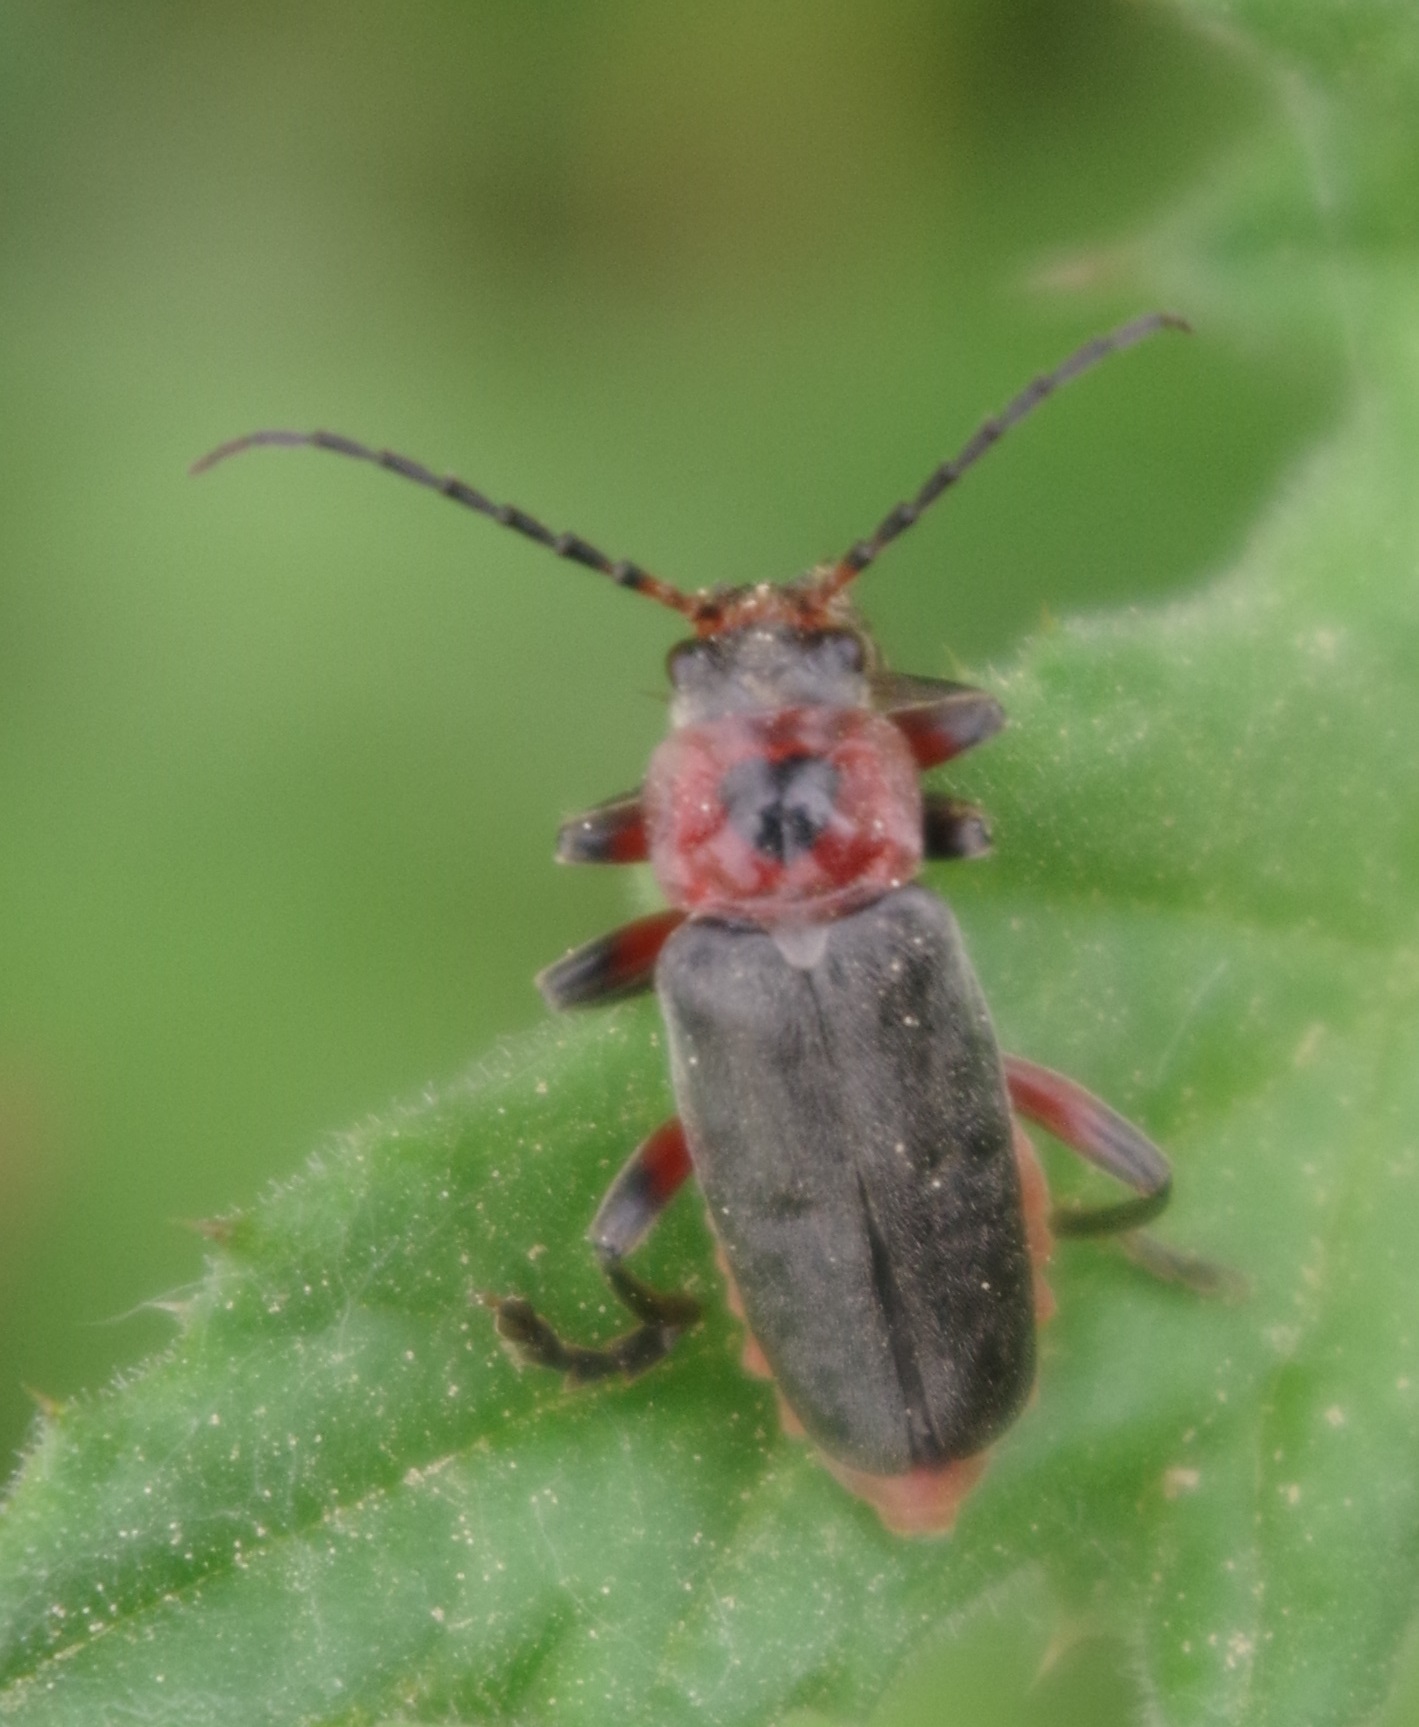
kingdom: Animalia
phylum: Arthropoda
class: Insecta
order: Coleoptera
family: Cantharidae
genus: Cantharis
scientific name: Cantharis rustica
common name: Soldier beetle
